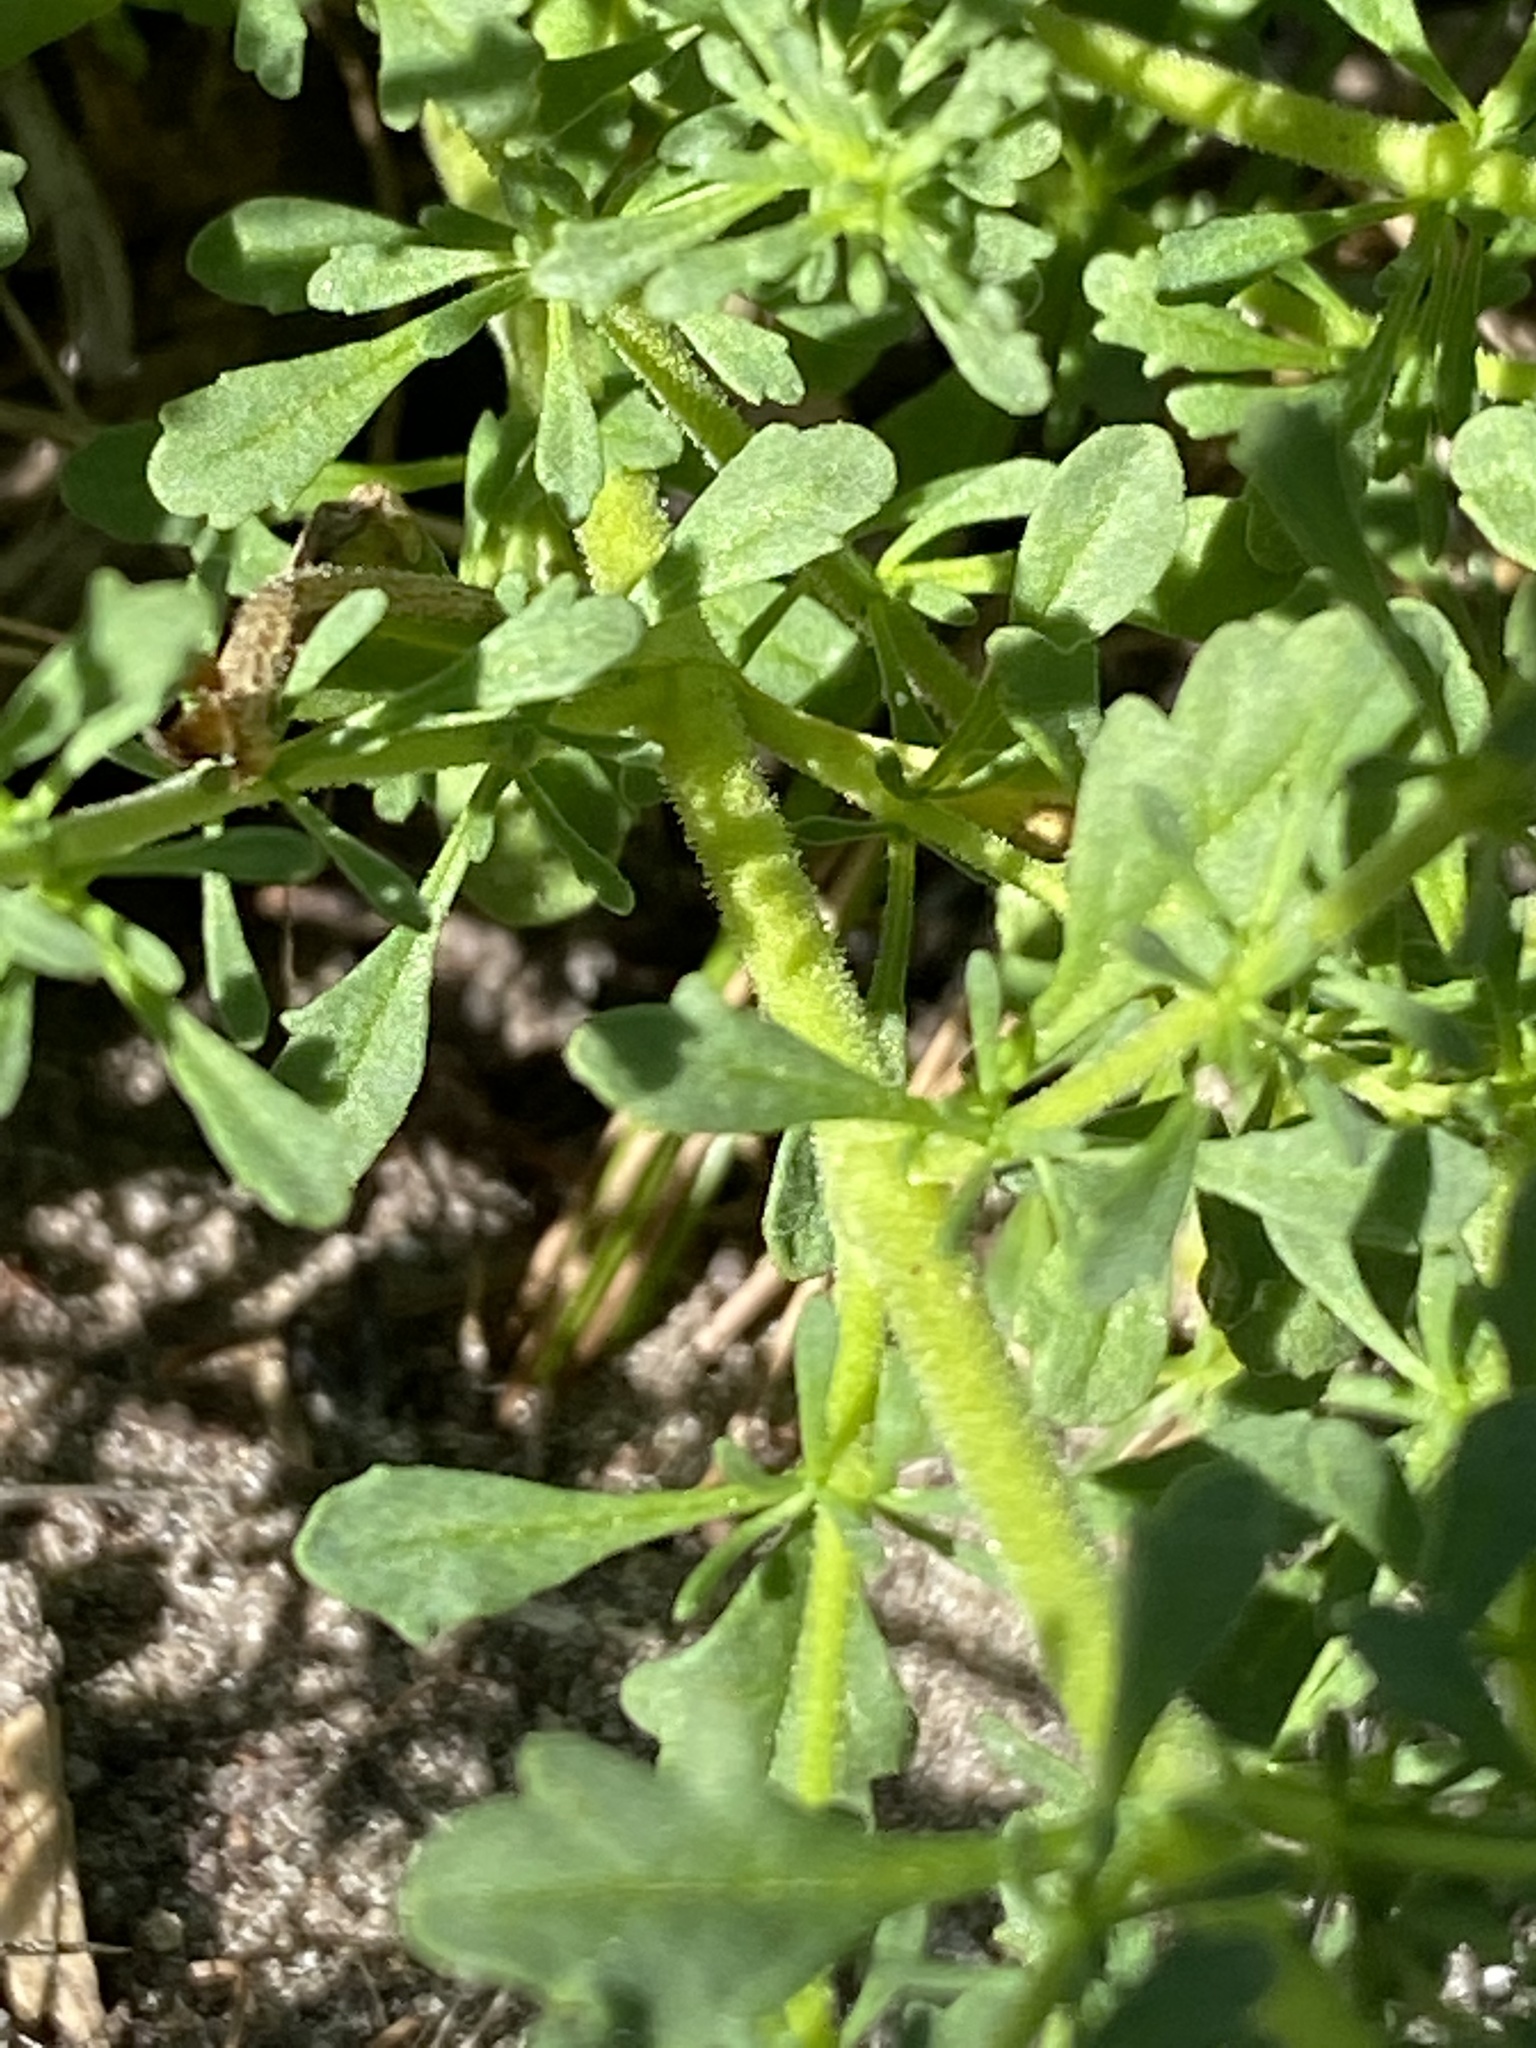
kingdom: Plantae
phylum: Tracheophyta
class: Magnoliopsida
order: Lamiales
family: Scrophulariaceae
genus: Jamesbrittenia
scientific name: Jamesbrittenia albomarginata
